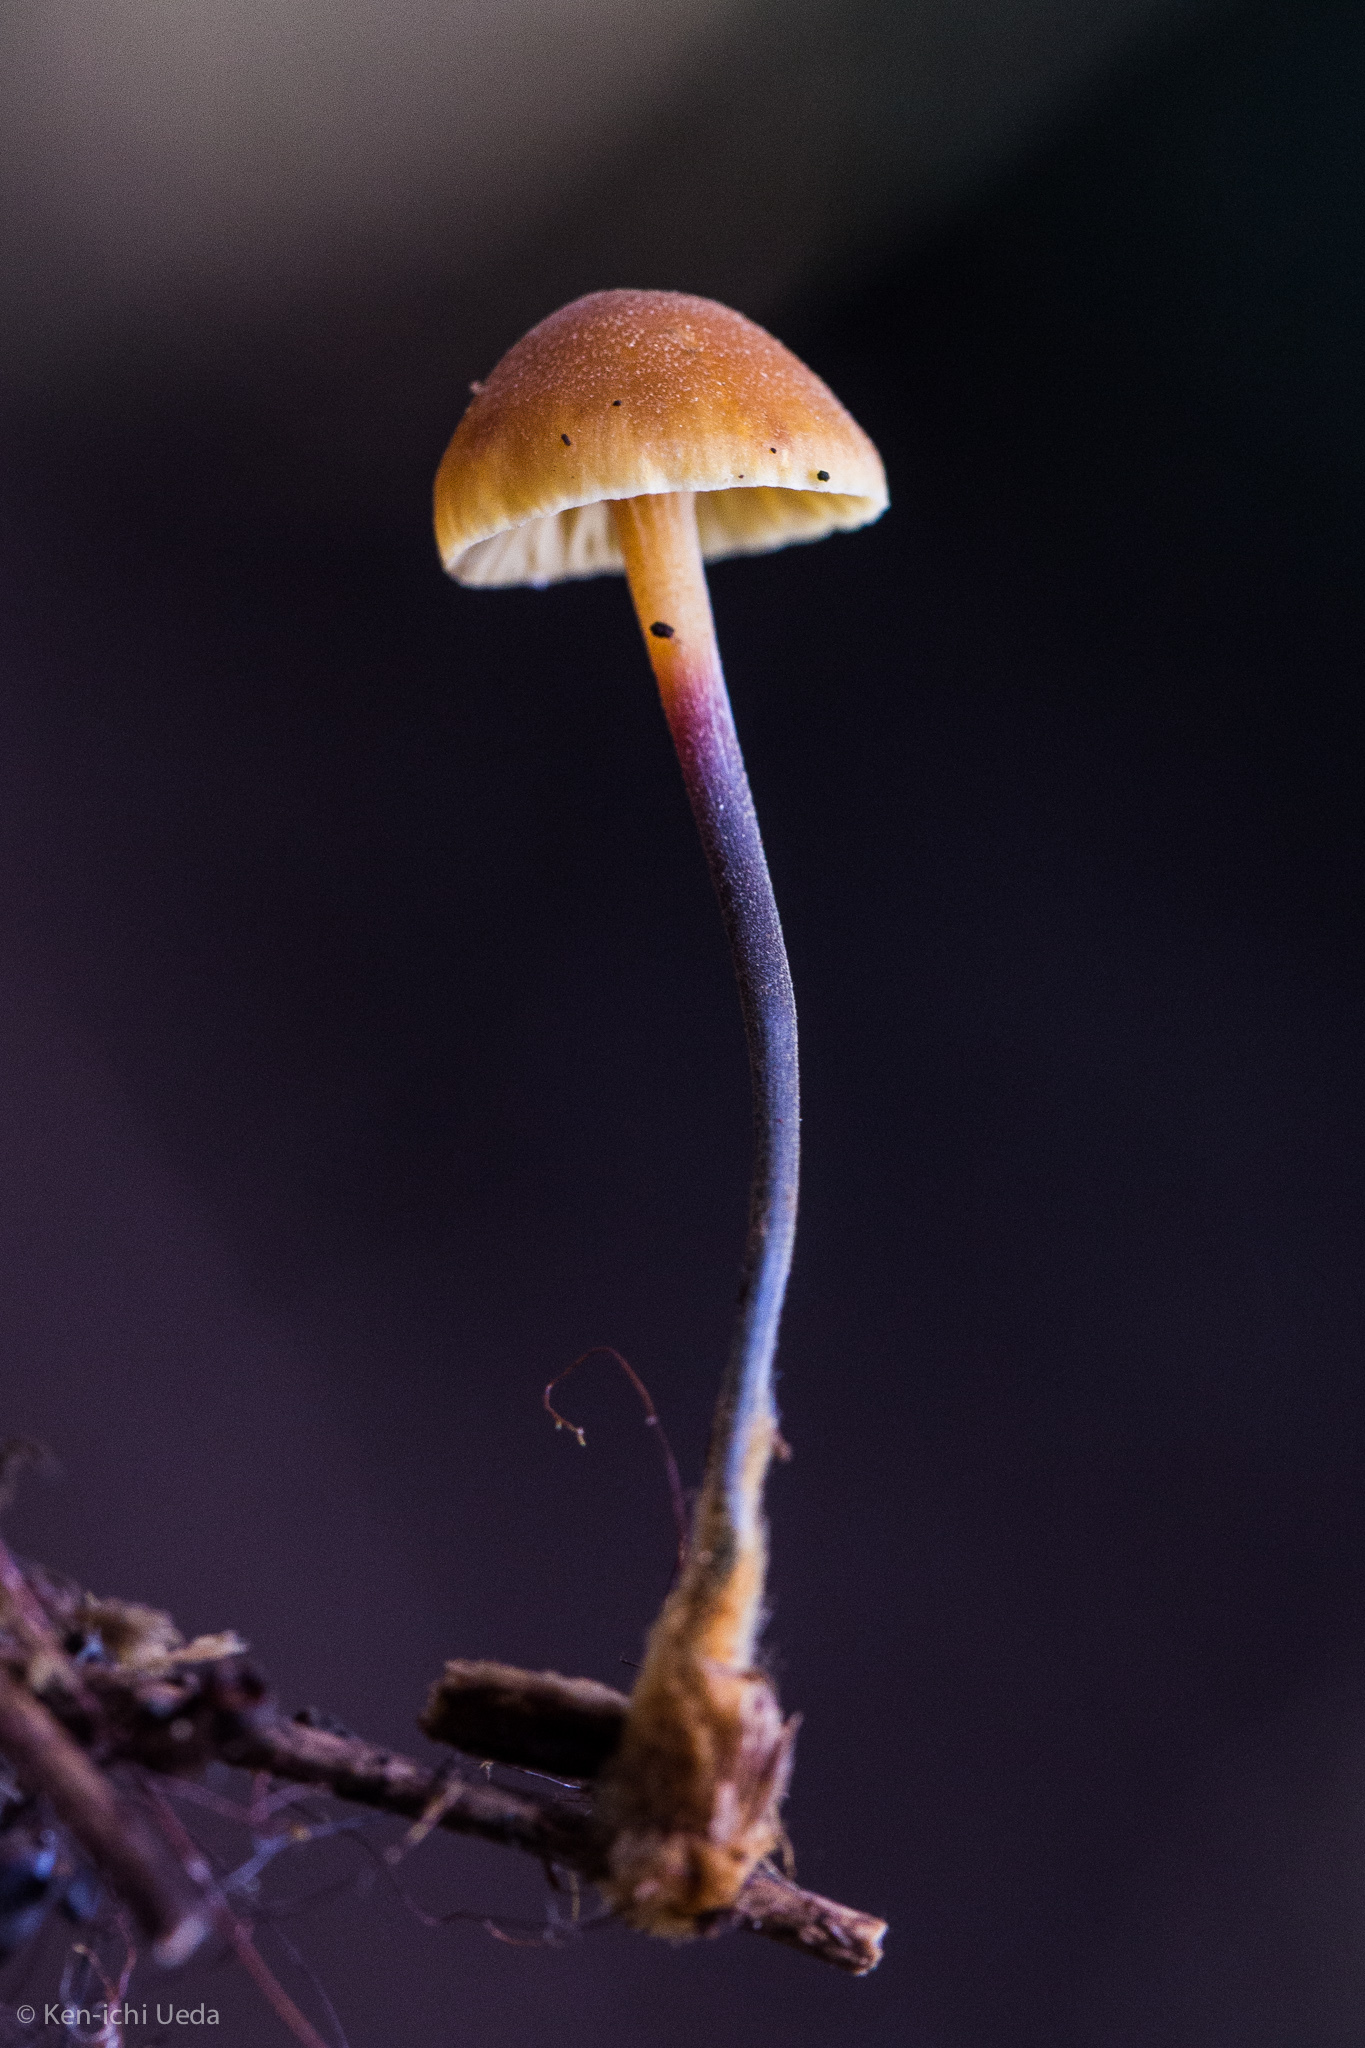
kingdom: Fungi
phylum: Basidiomycota
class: Agaricomycetes
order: Agaricales
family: Mycenaceae
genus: Xeromphalina
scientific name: Xeromphalina cauticinalis
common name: Pinelitter gingertail
